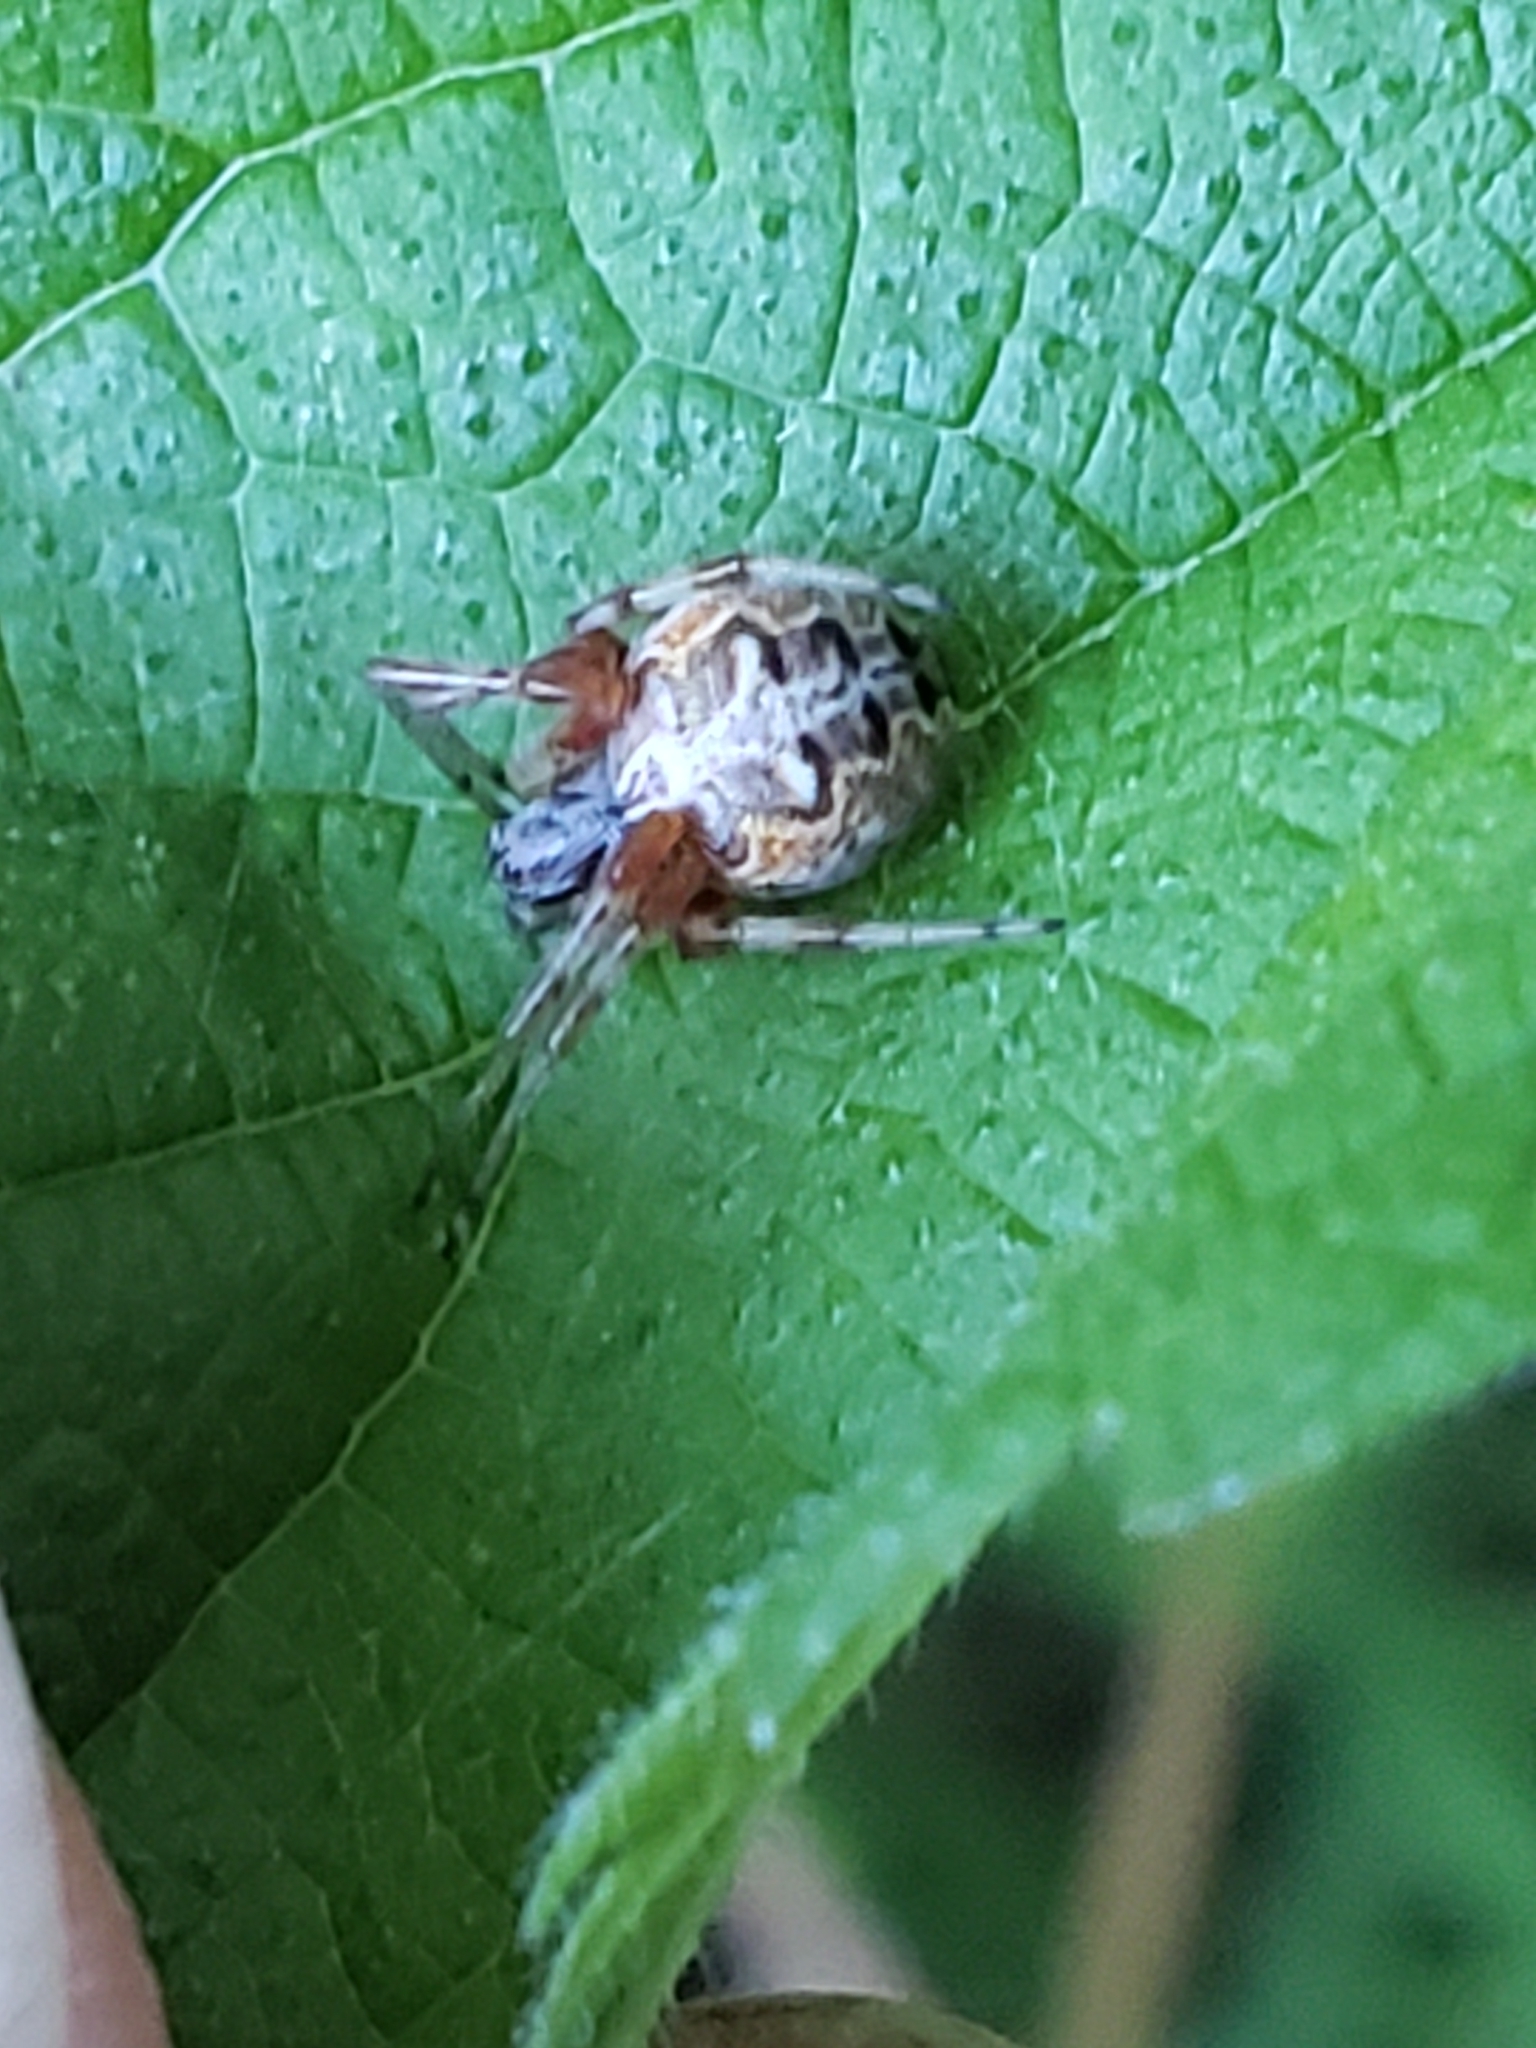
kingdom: Animalia
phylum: Arthropoda
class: Arachnida
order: Araneae
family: Araneidae
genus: Metepeira
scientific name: Metepeira labyrinthea
